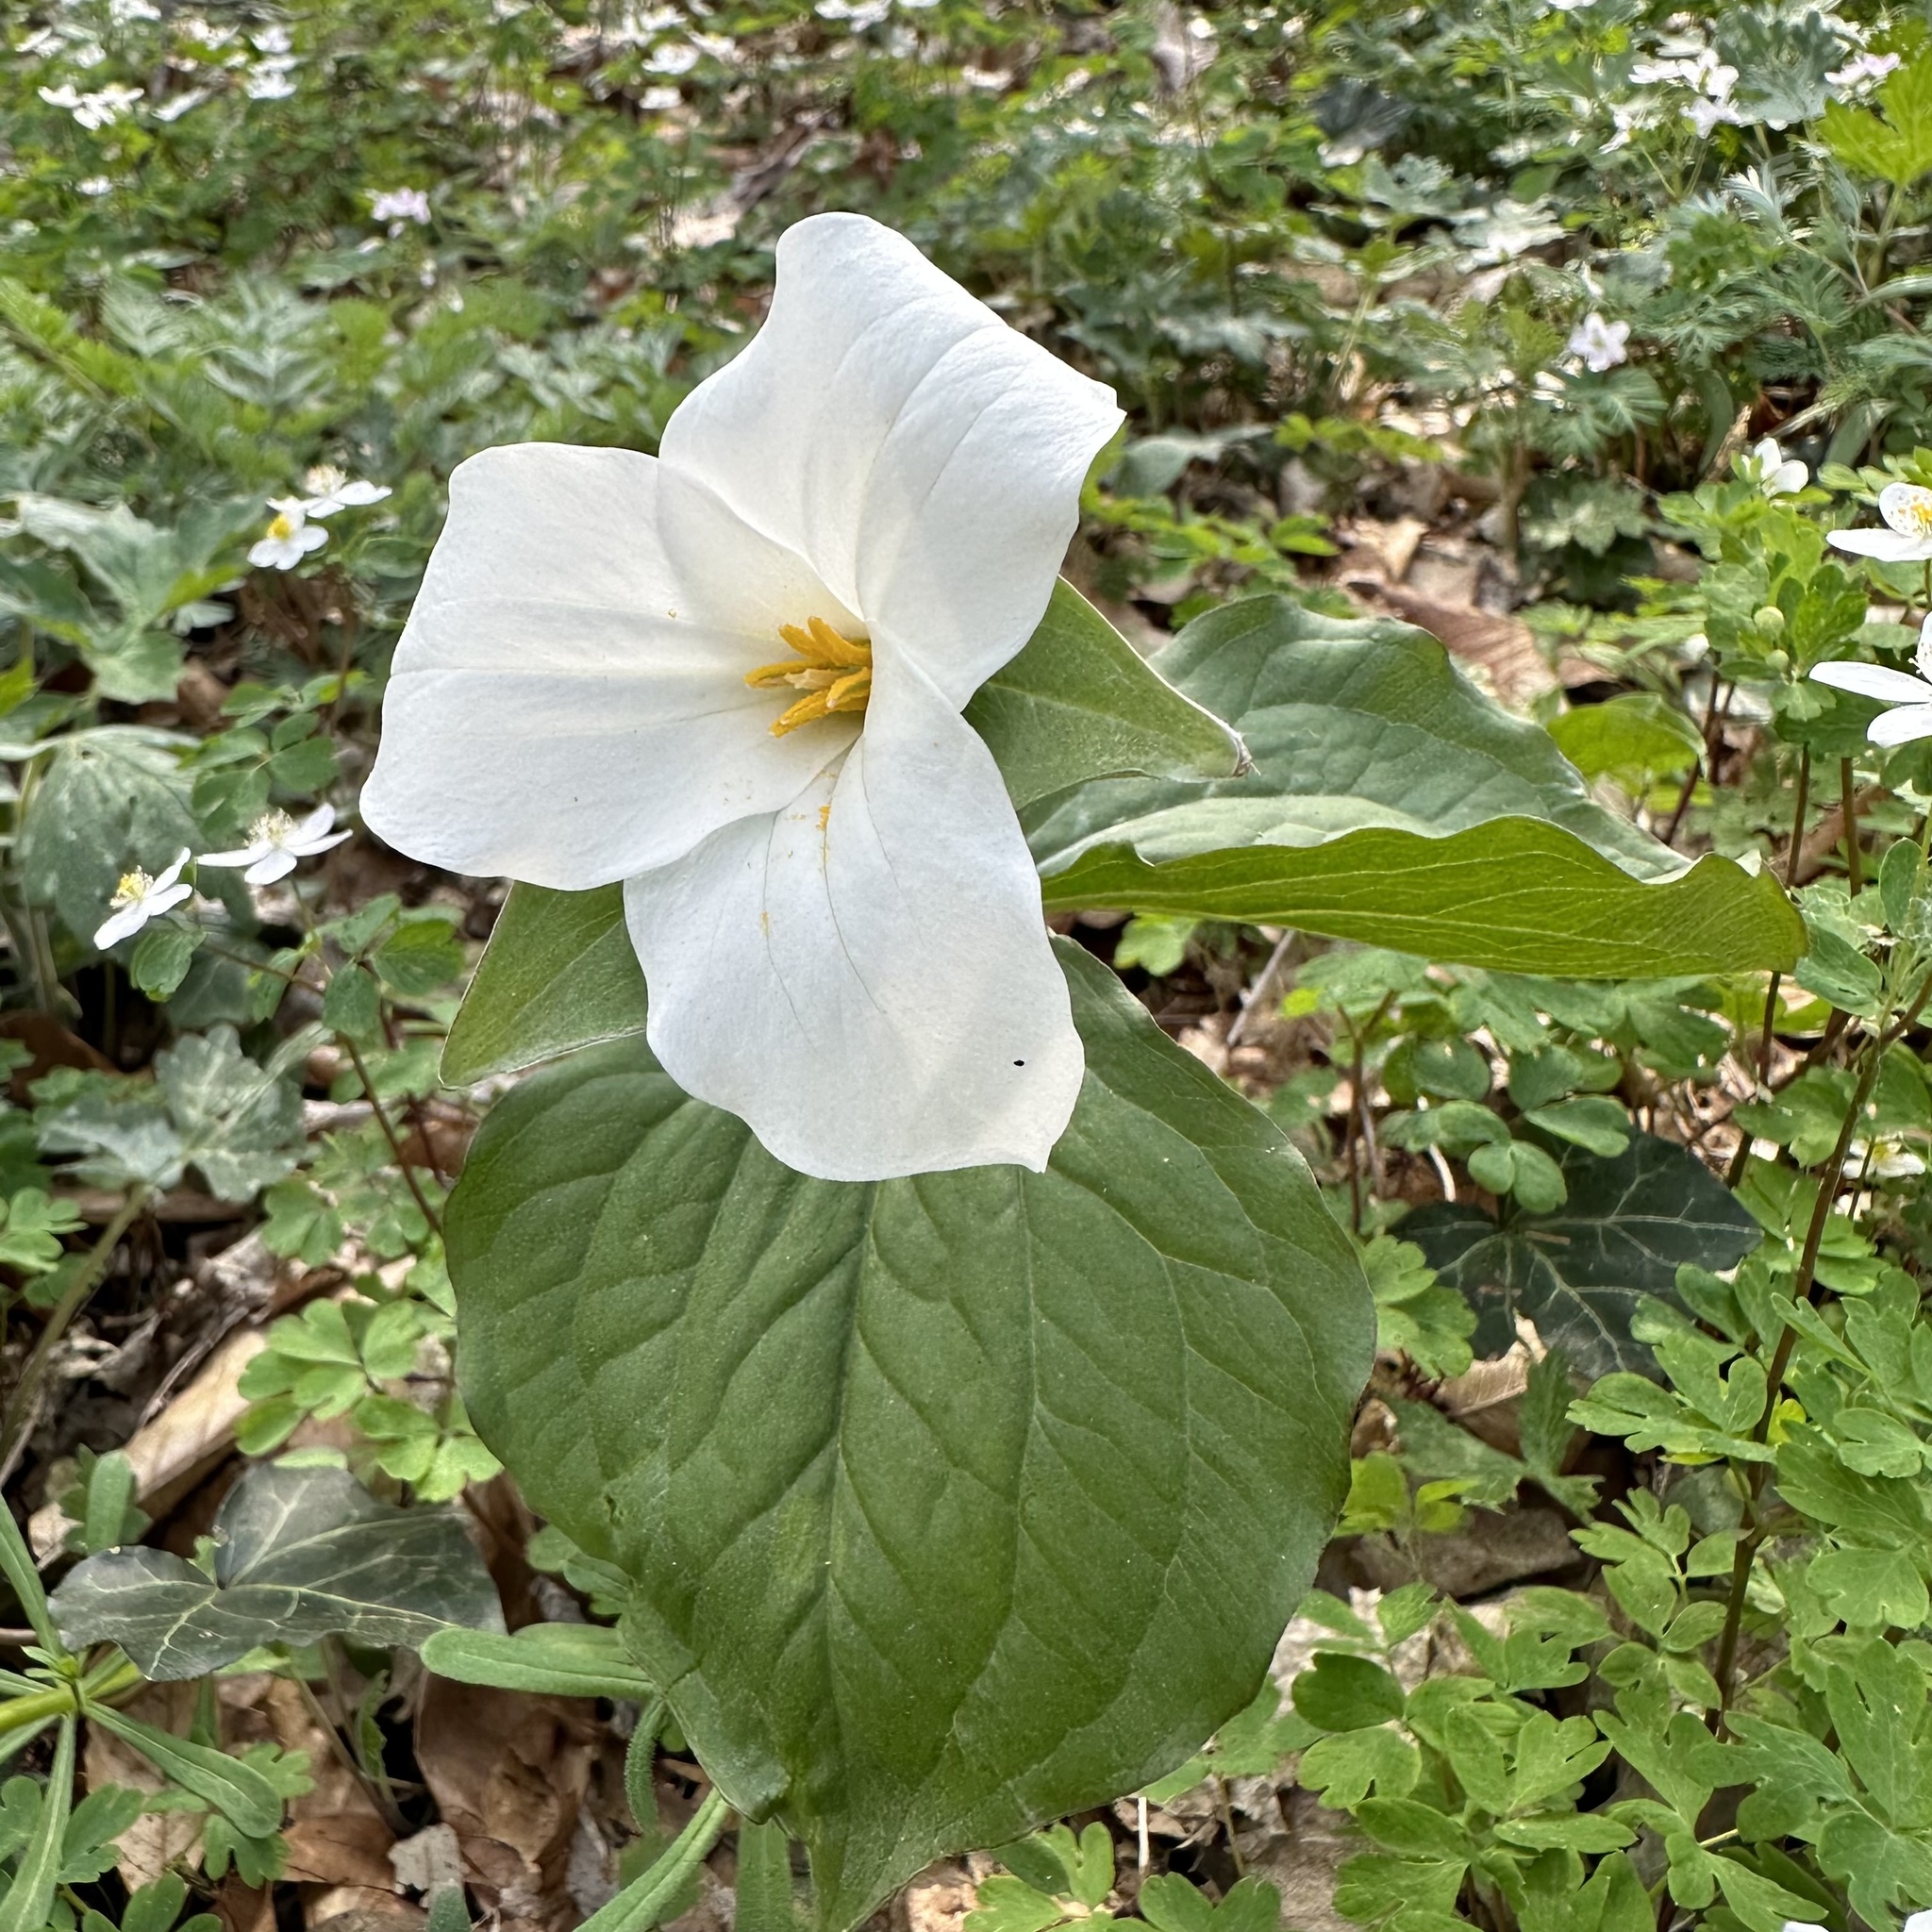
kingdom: Plantae
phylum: Tracheophyta
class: Liliopsida
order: Liliales
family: Melanthiaceae
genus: Trillium
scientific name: Trillium grandiflorum
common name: Great white trillium
